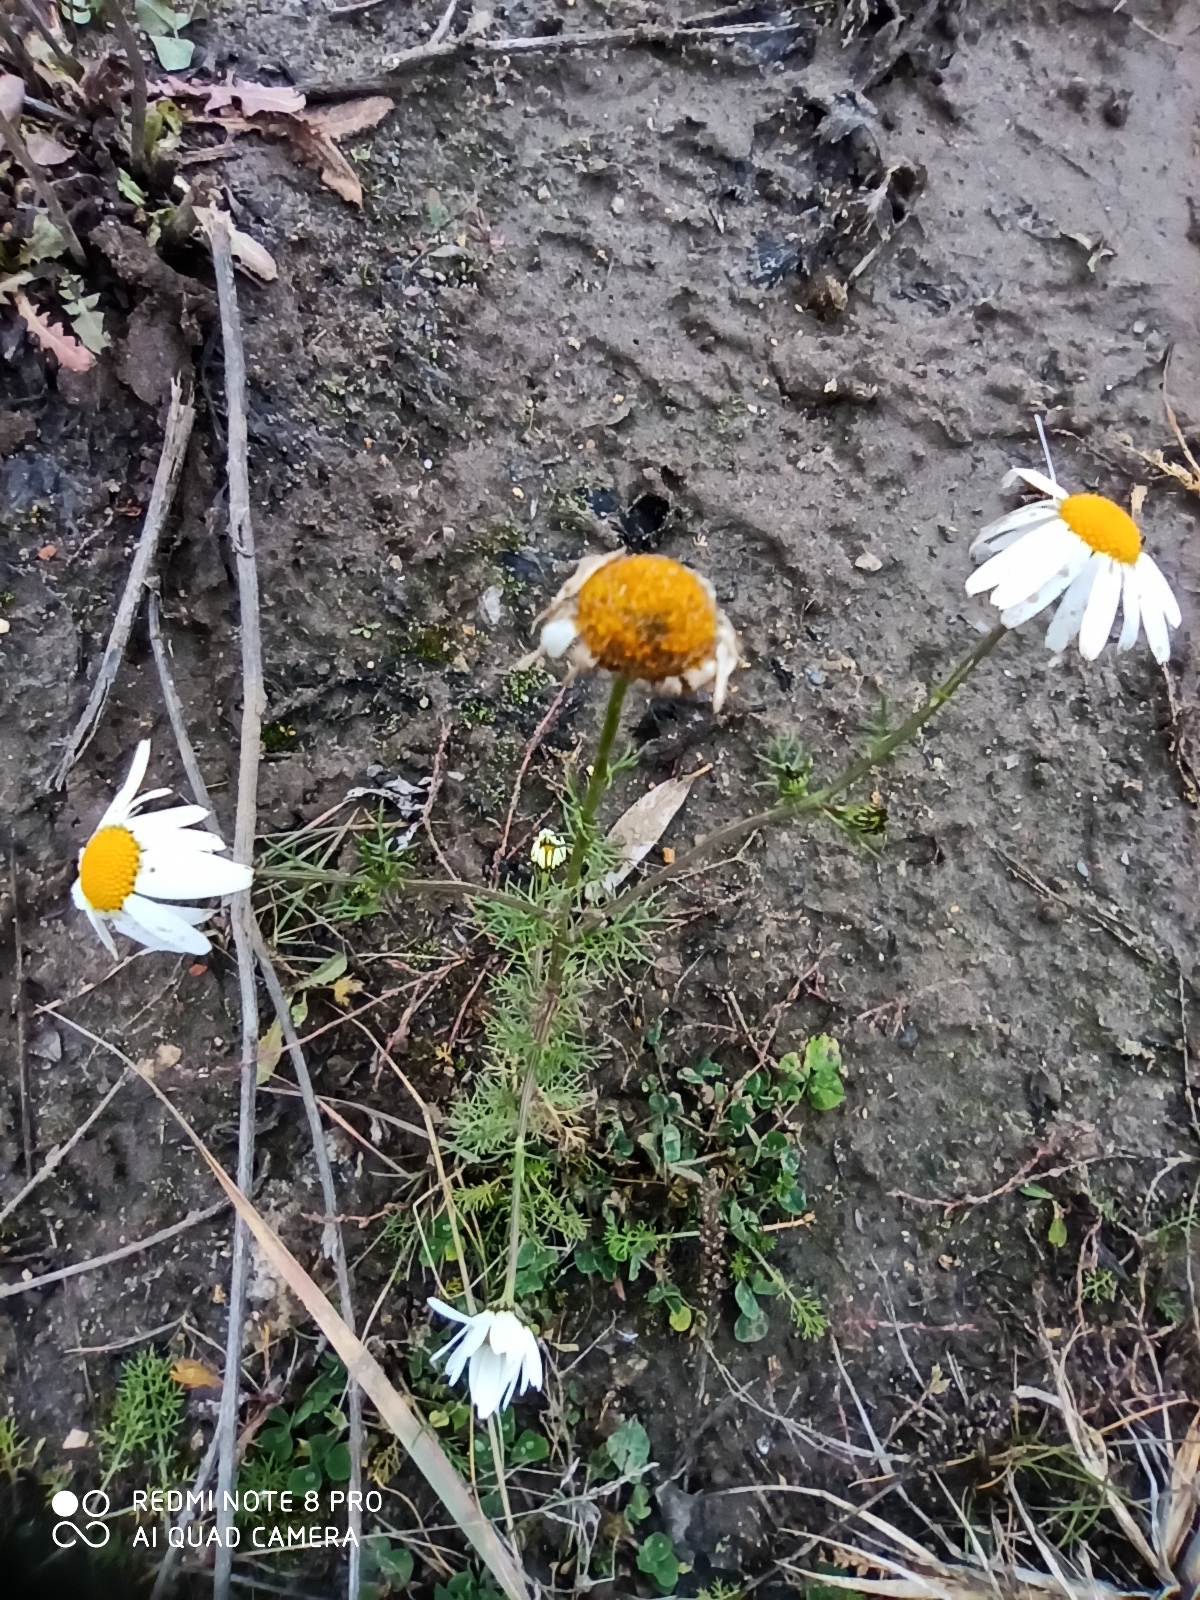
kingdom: Plantae
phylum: Tracheophyta
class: Magnoliopsida
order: Asterales
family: Asteraceae
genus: Tripleurospermum
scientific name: Tripleurospermum inodorum
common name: Scentless mayweed
